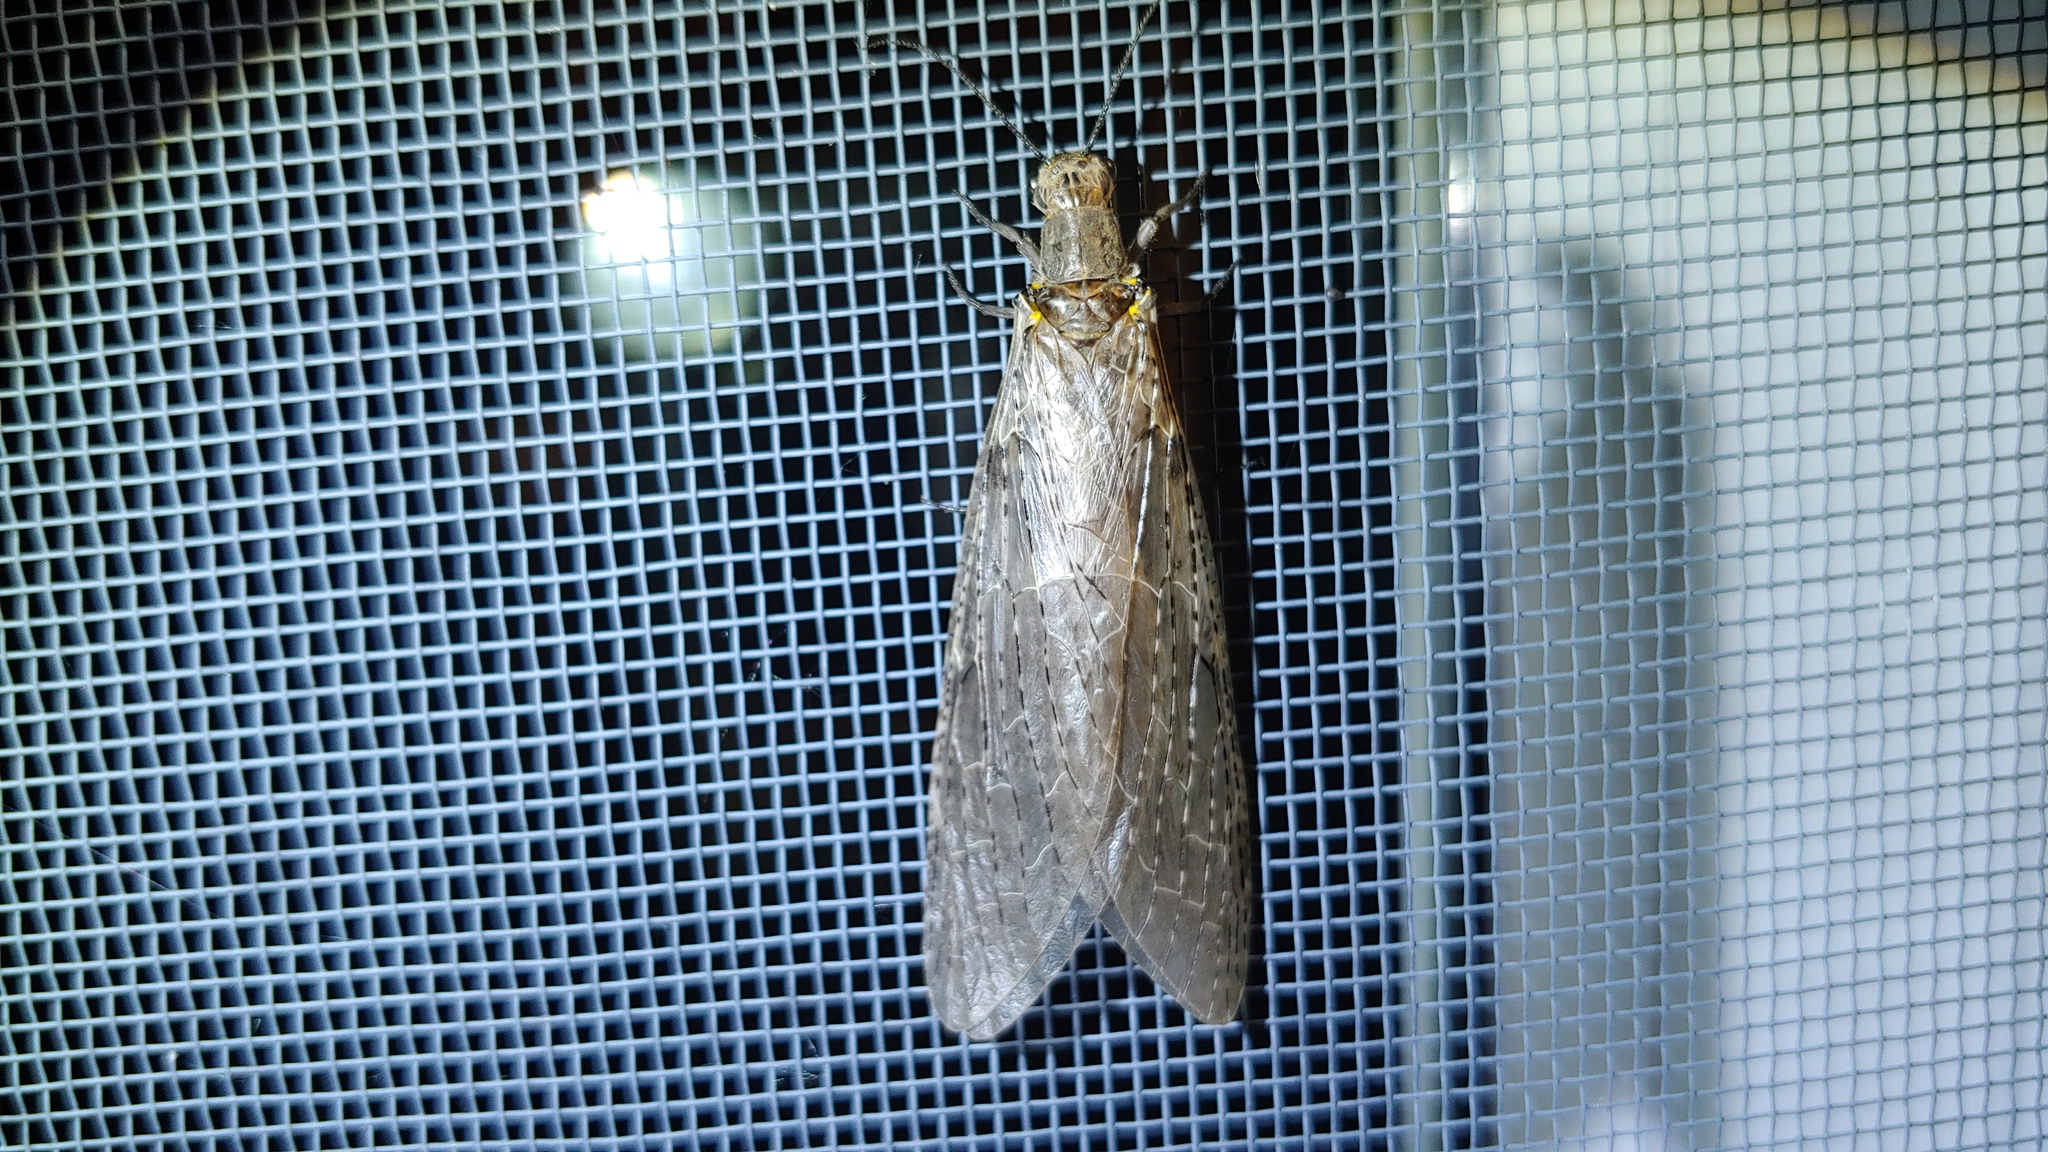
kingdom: Animalia
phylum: Arthropoda
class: Insecta
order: Megaloptera
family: Corydalidae
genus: Chauliodes
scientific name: Chauliodes rastricornis
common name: Spring fishfly
